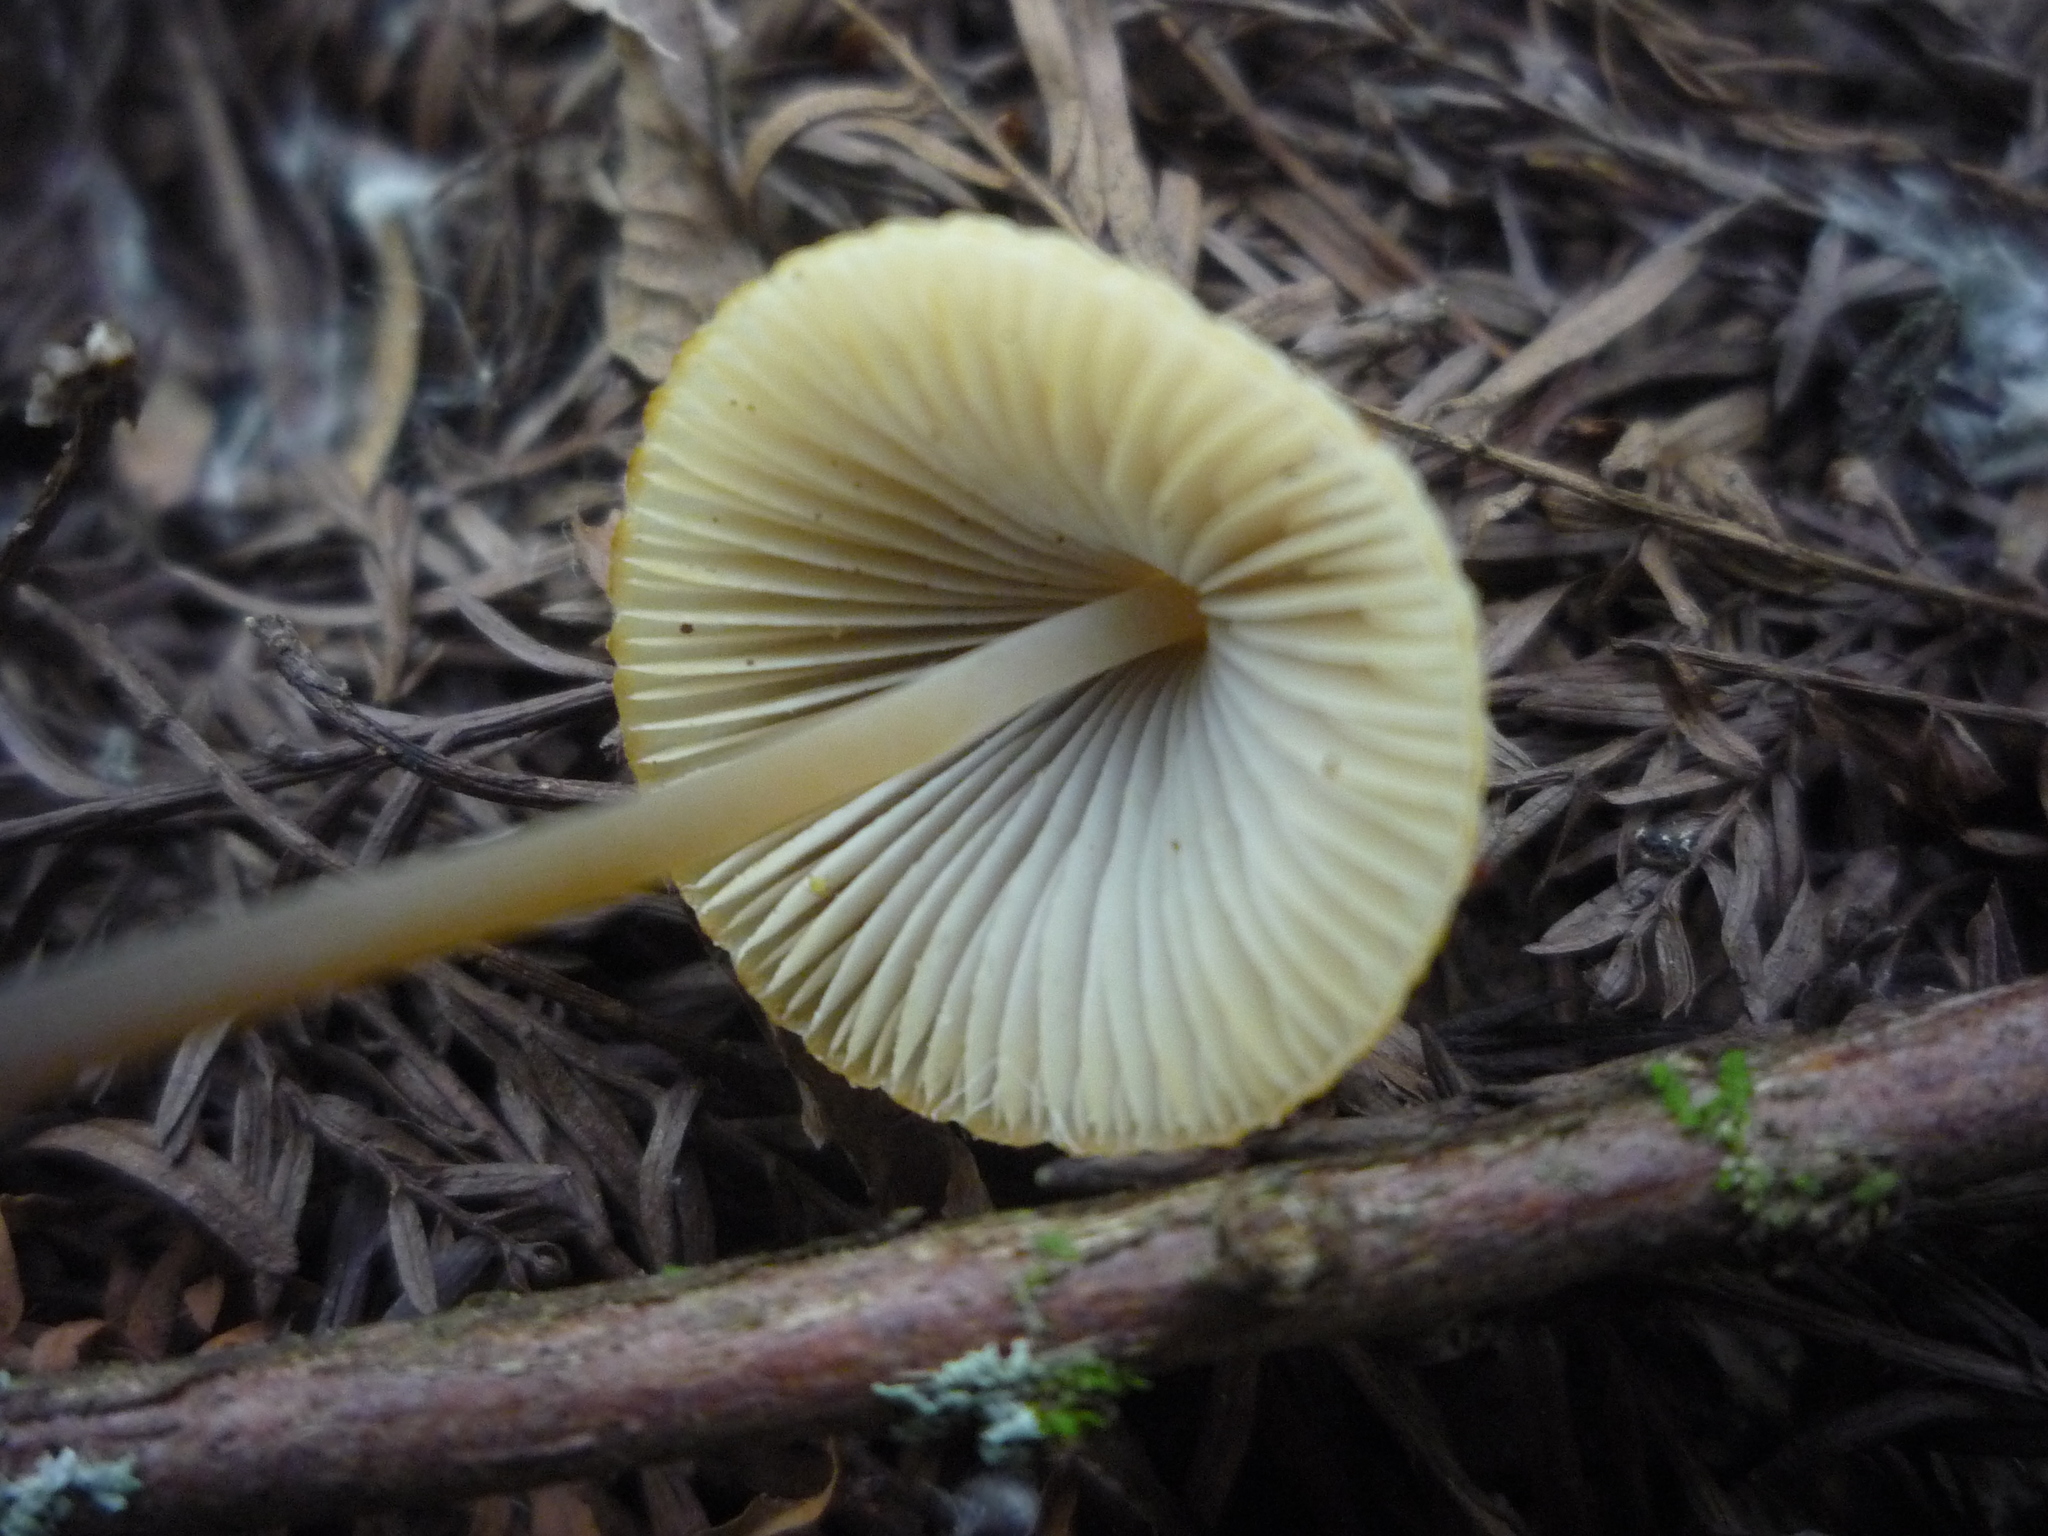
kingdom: Fungi
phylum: Basidiomycota
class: Agaricomycetes
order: Agaricales
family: Mycenaceae
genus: Mycena
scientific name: Mycena filopes
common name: Iodine bonnet
